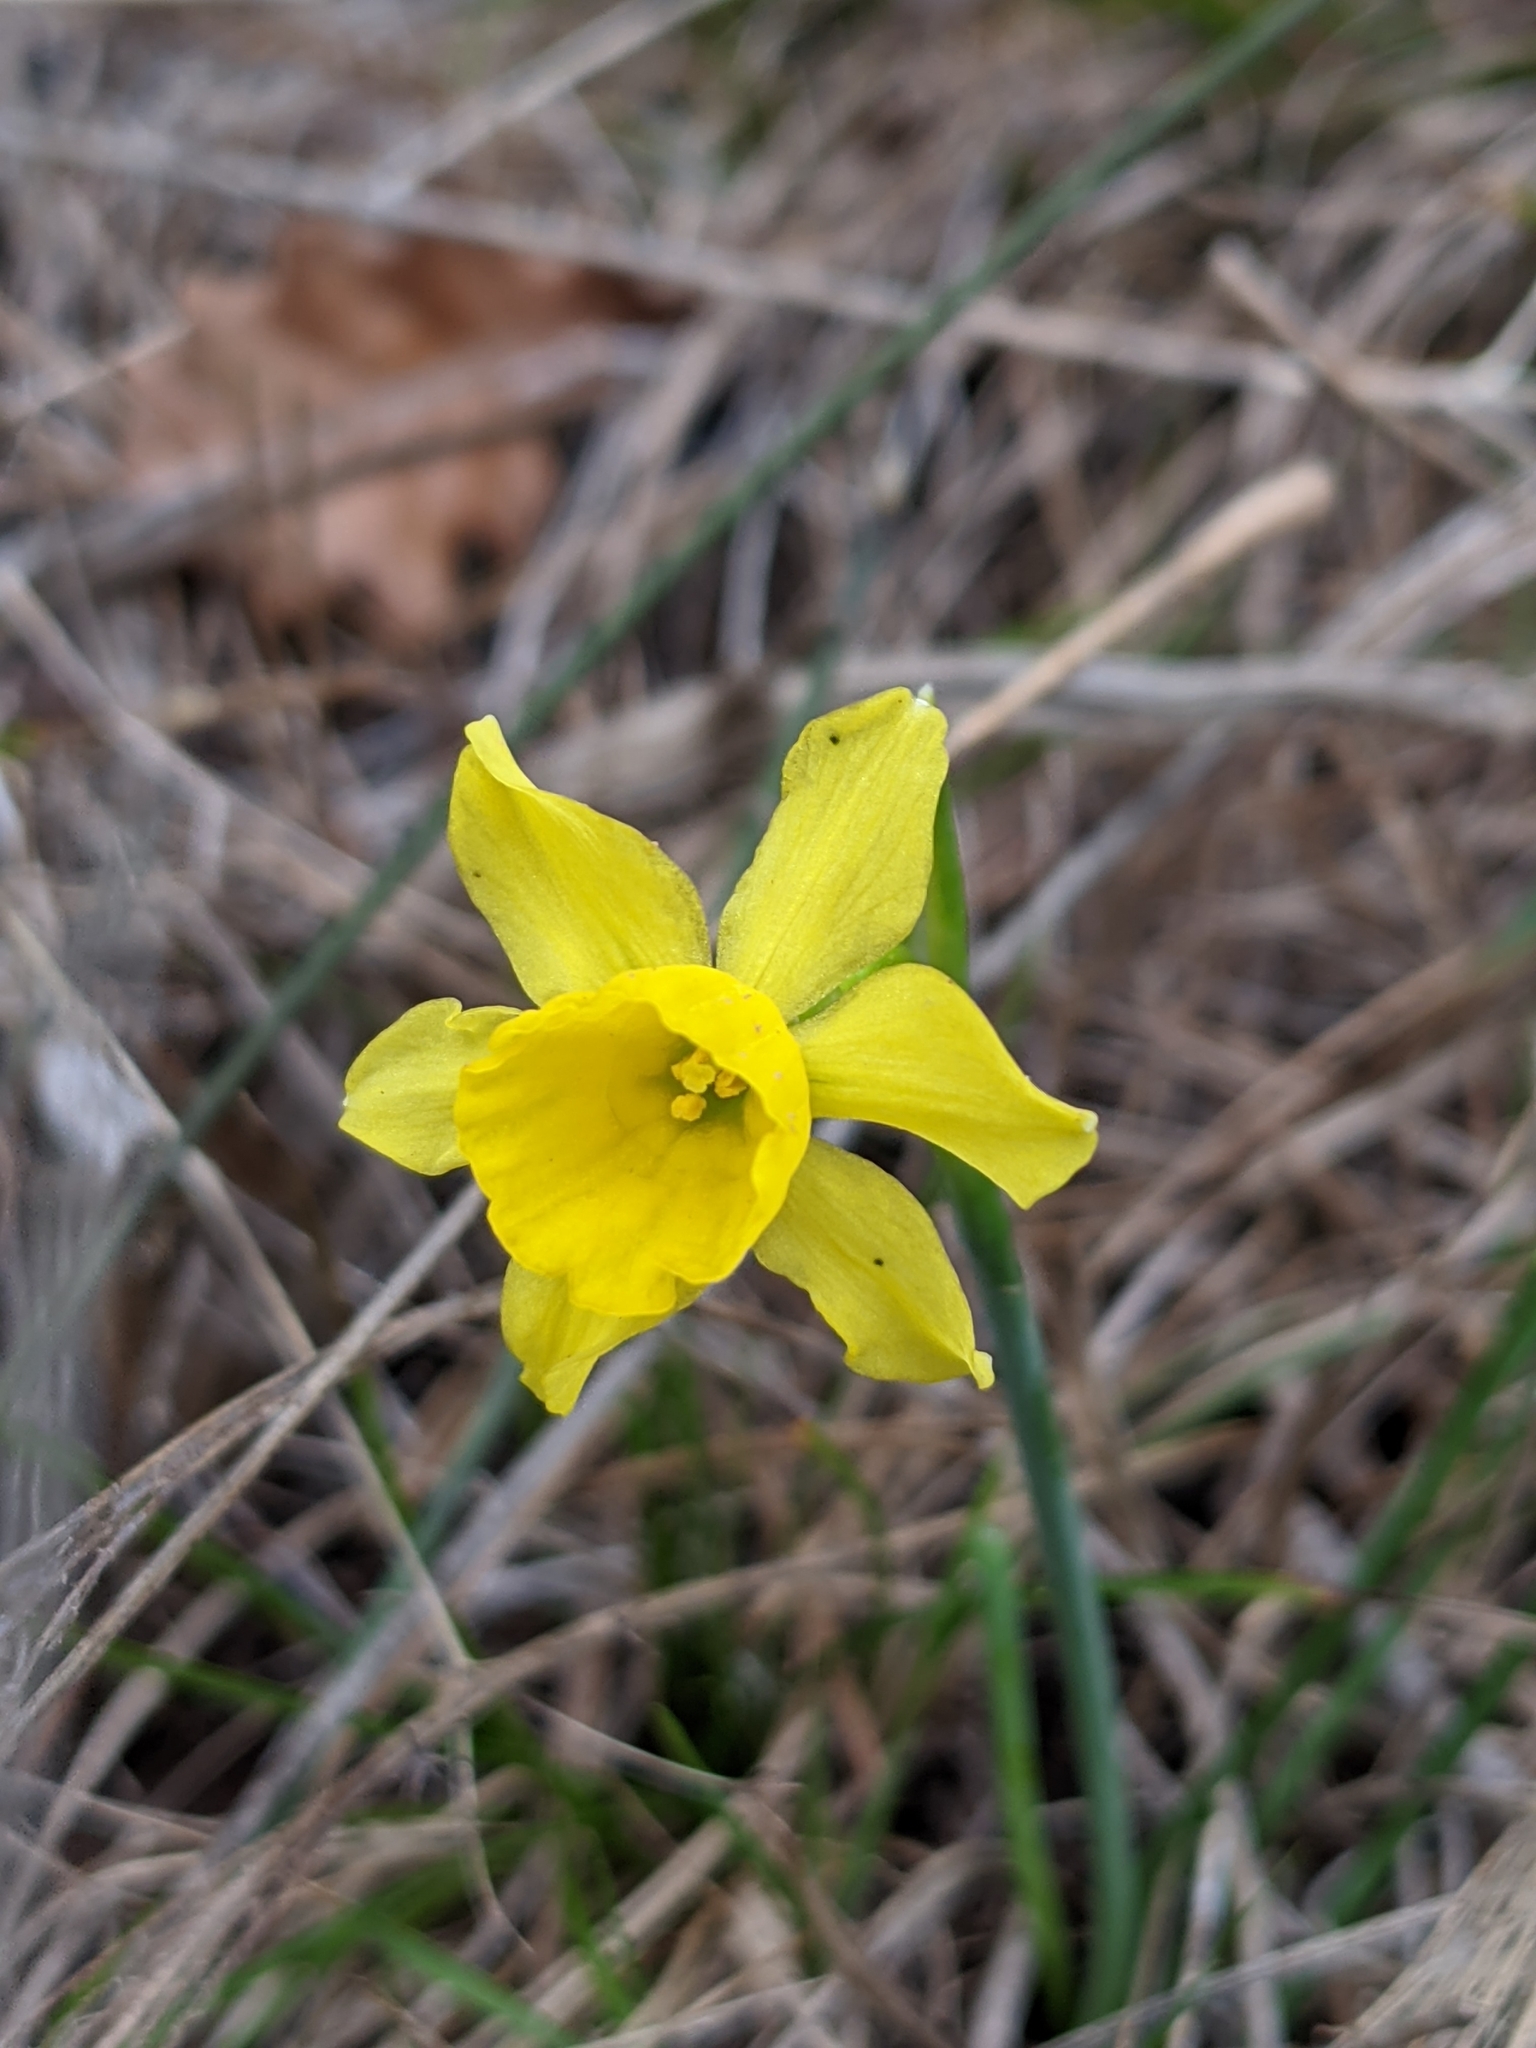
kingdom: Plantae
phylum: Tracheophyta
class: Liliopsida
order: Asparagales
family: Amaryllidaceae
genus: Narcissus
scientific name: Narcissus assoanus
